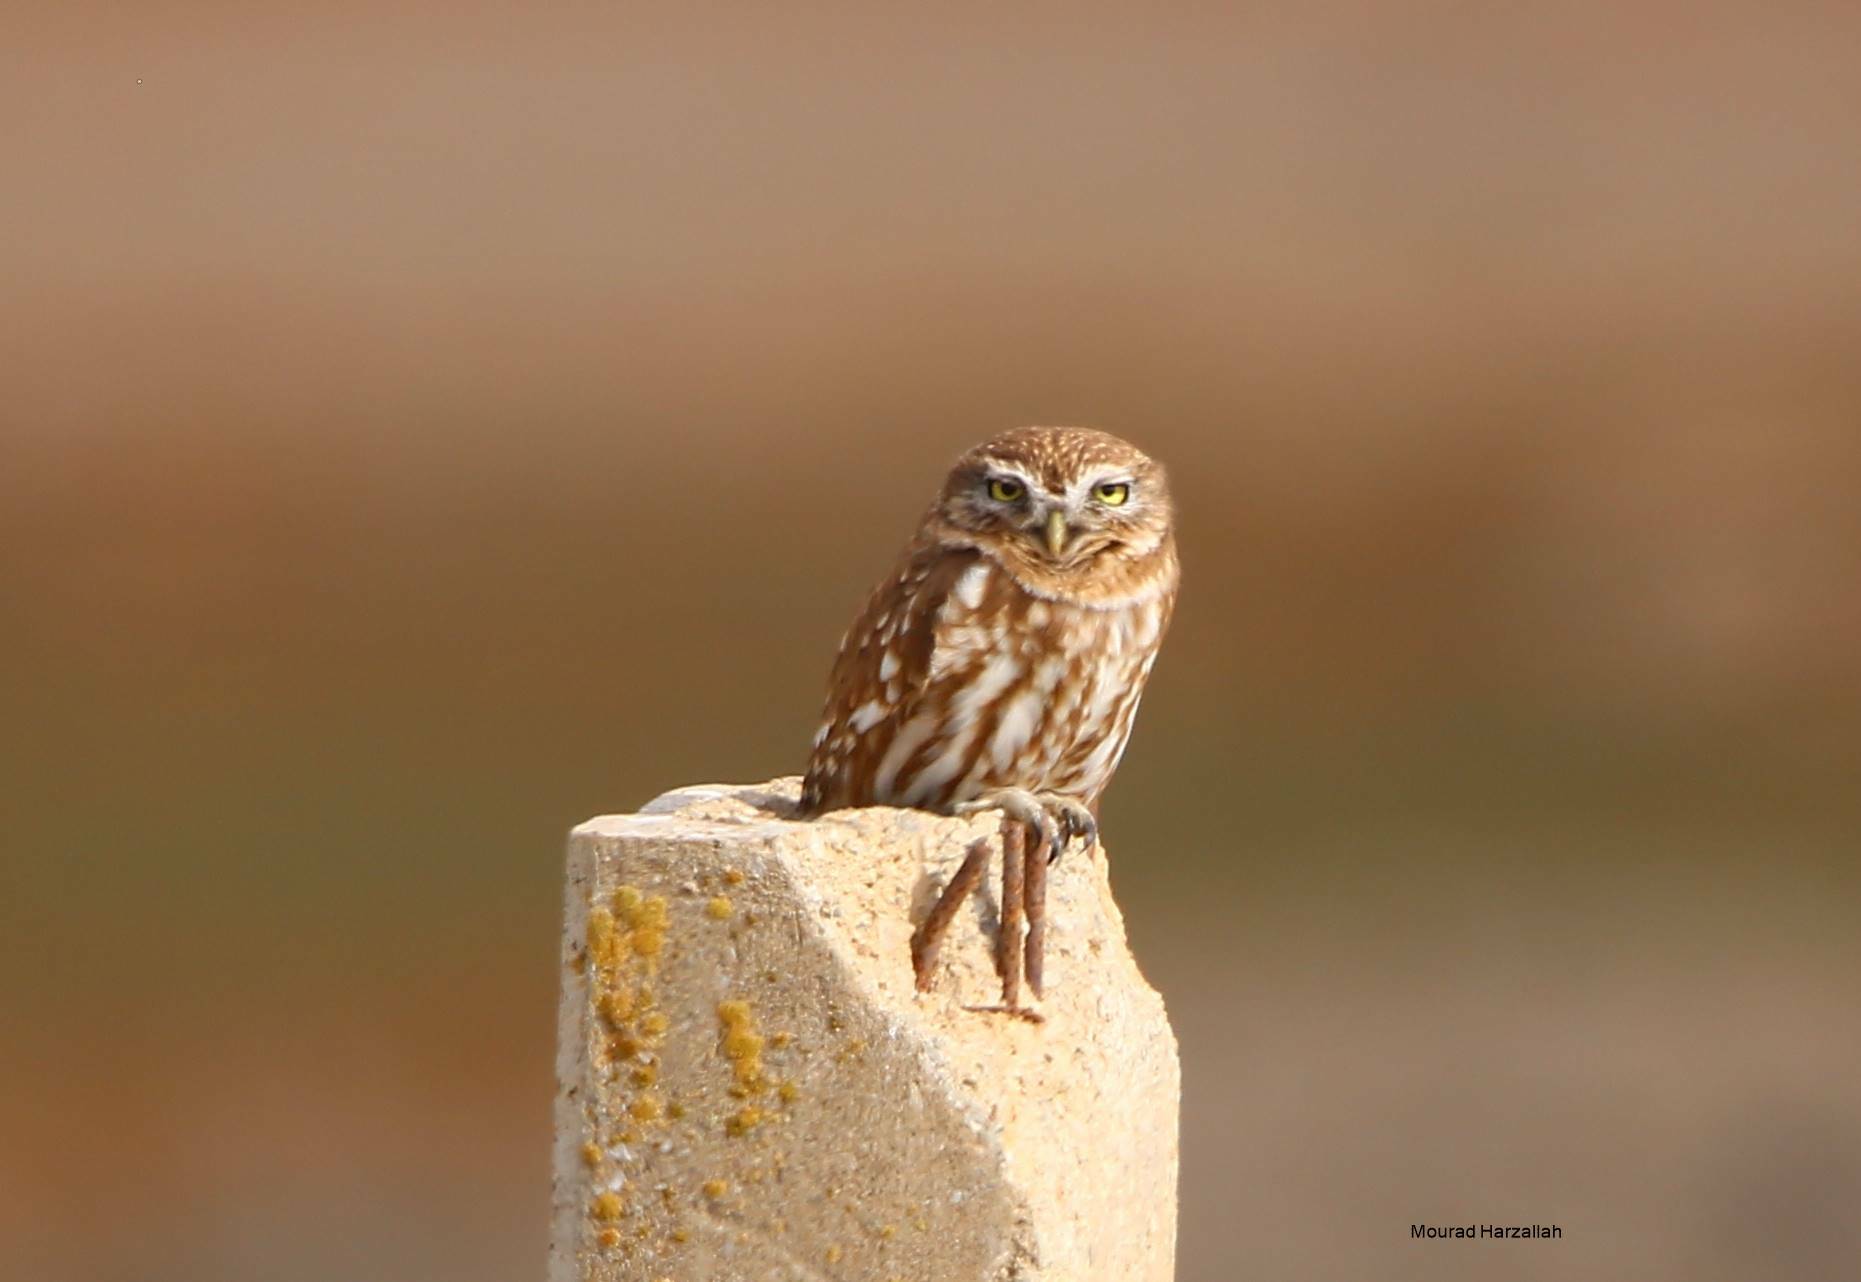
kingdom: Animalia
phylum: Chordata
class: Aves
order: Strigiformes
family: Strigidae
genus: Athene
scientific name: Athene noctua
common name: Little owl
